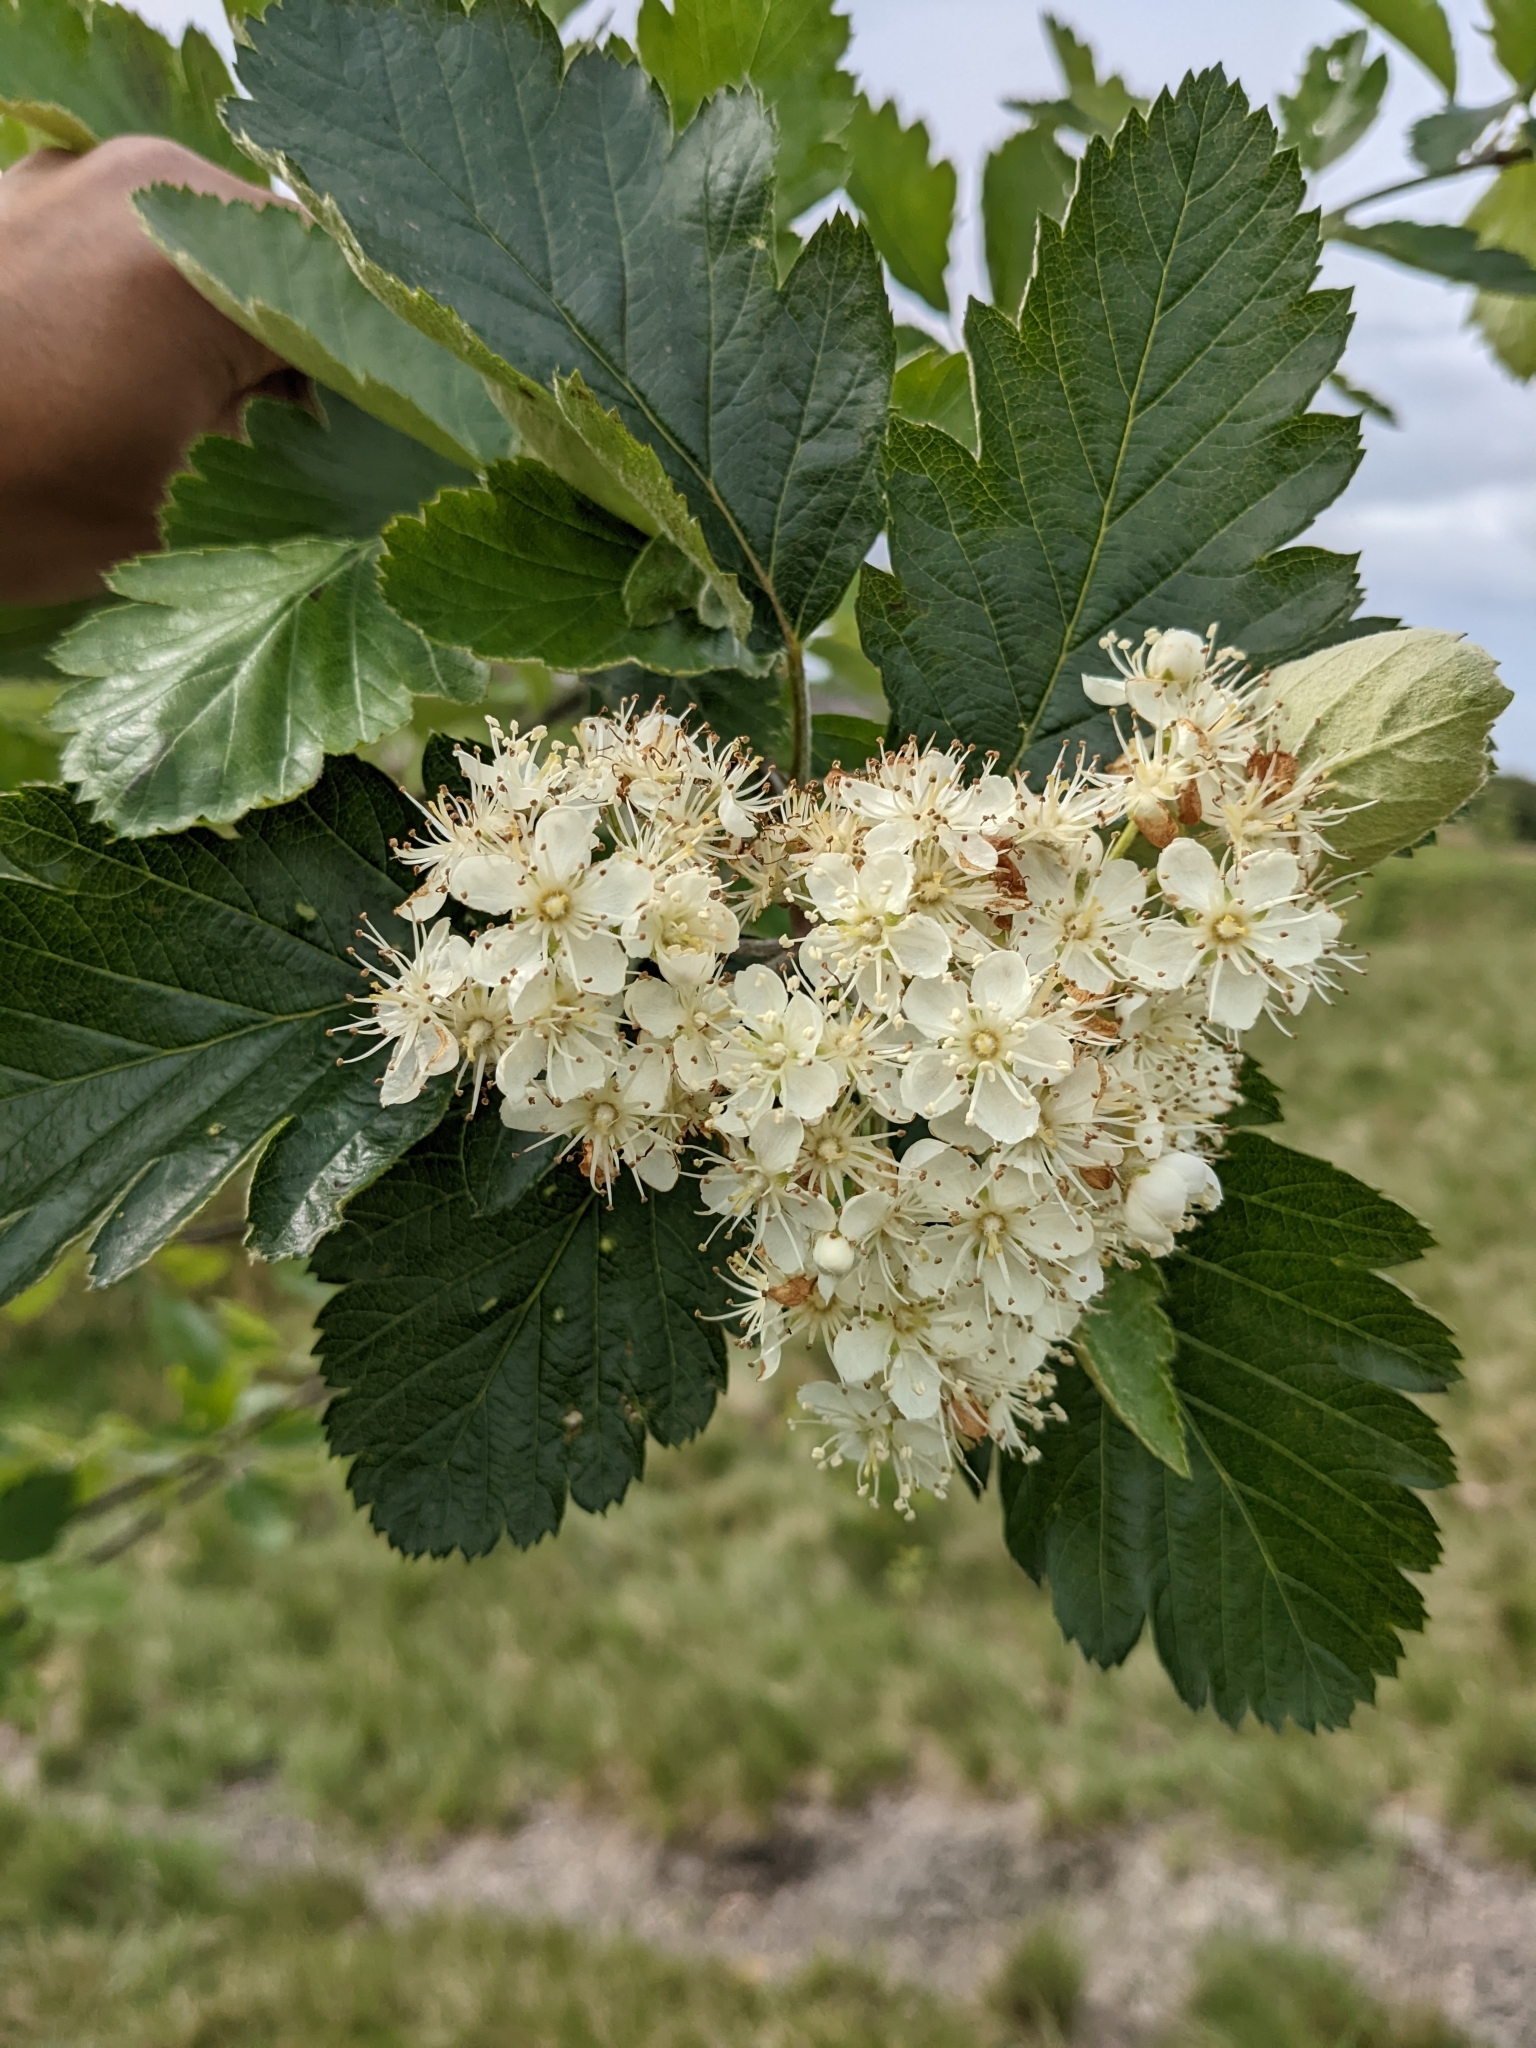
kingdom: Plantae
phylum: Tracheophyta
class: Magnoliopsida
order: Rosales
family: Rosaceae
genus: Scandosorbus
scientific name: Scandosorbus intermedia
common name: Swedish whitebeam
